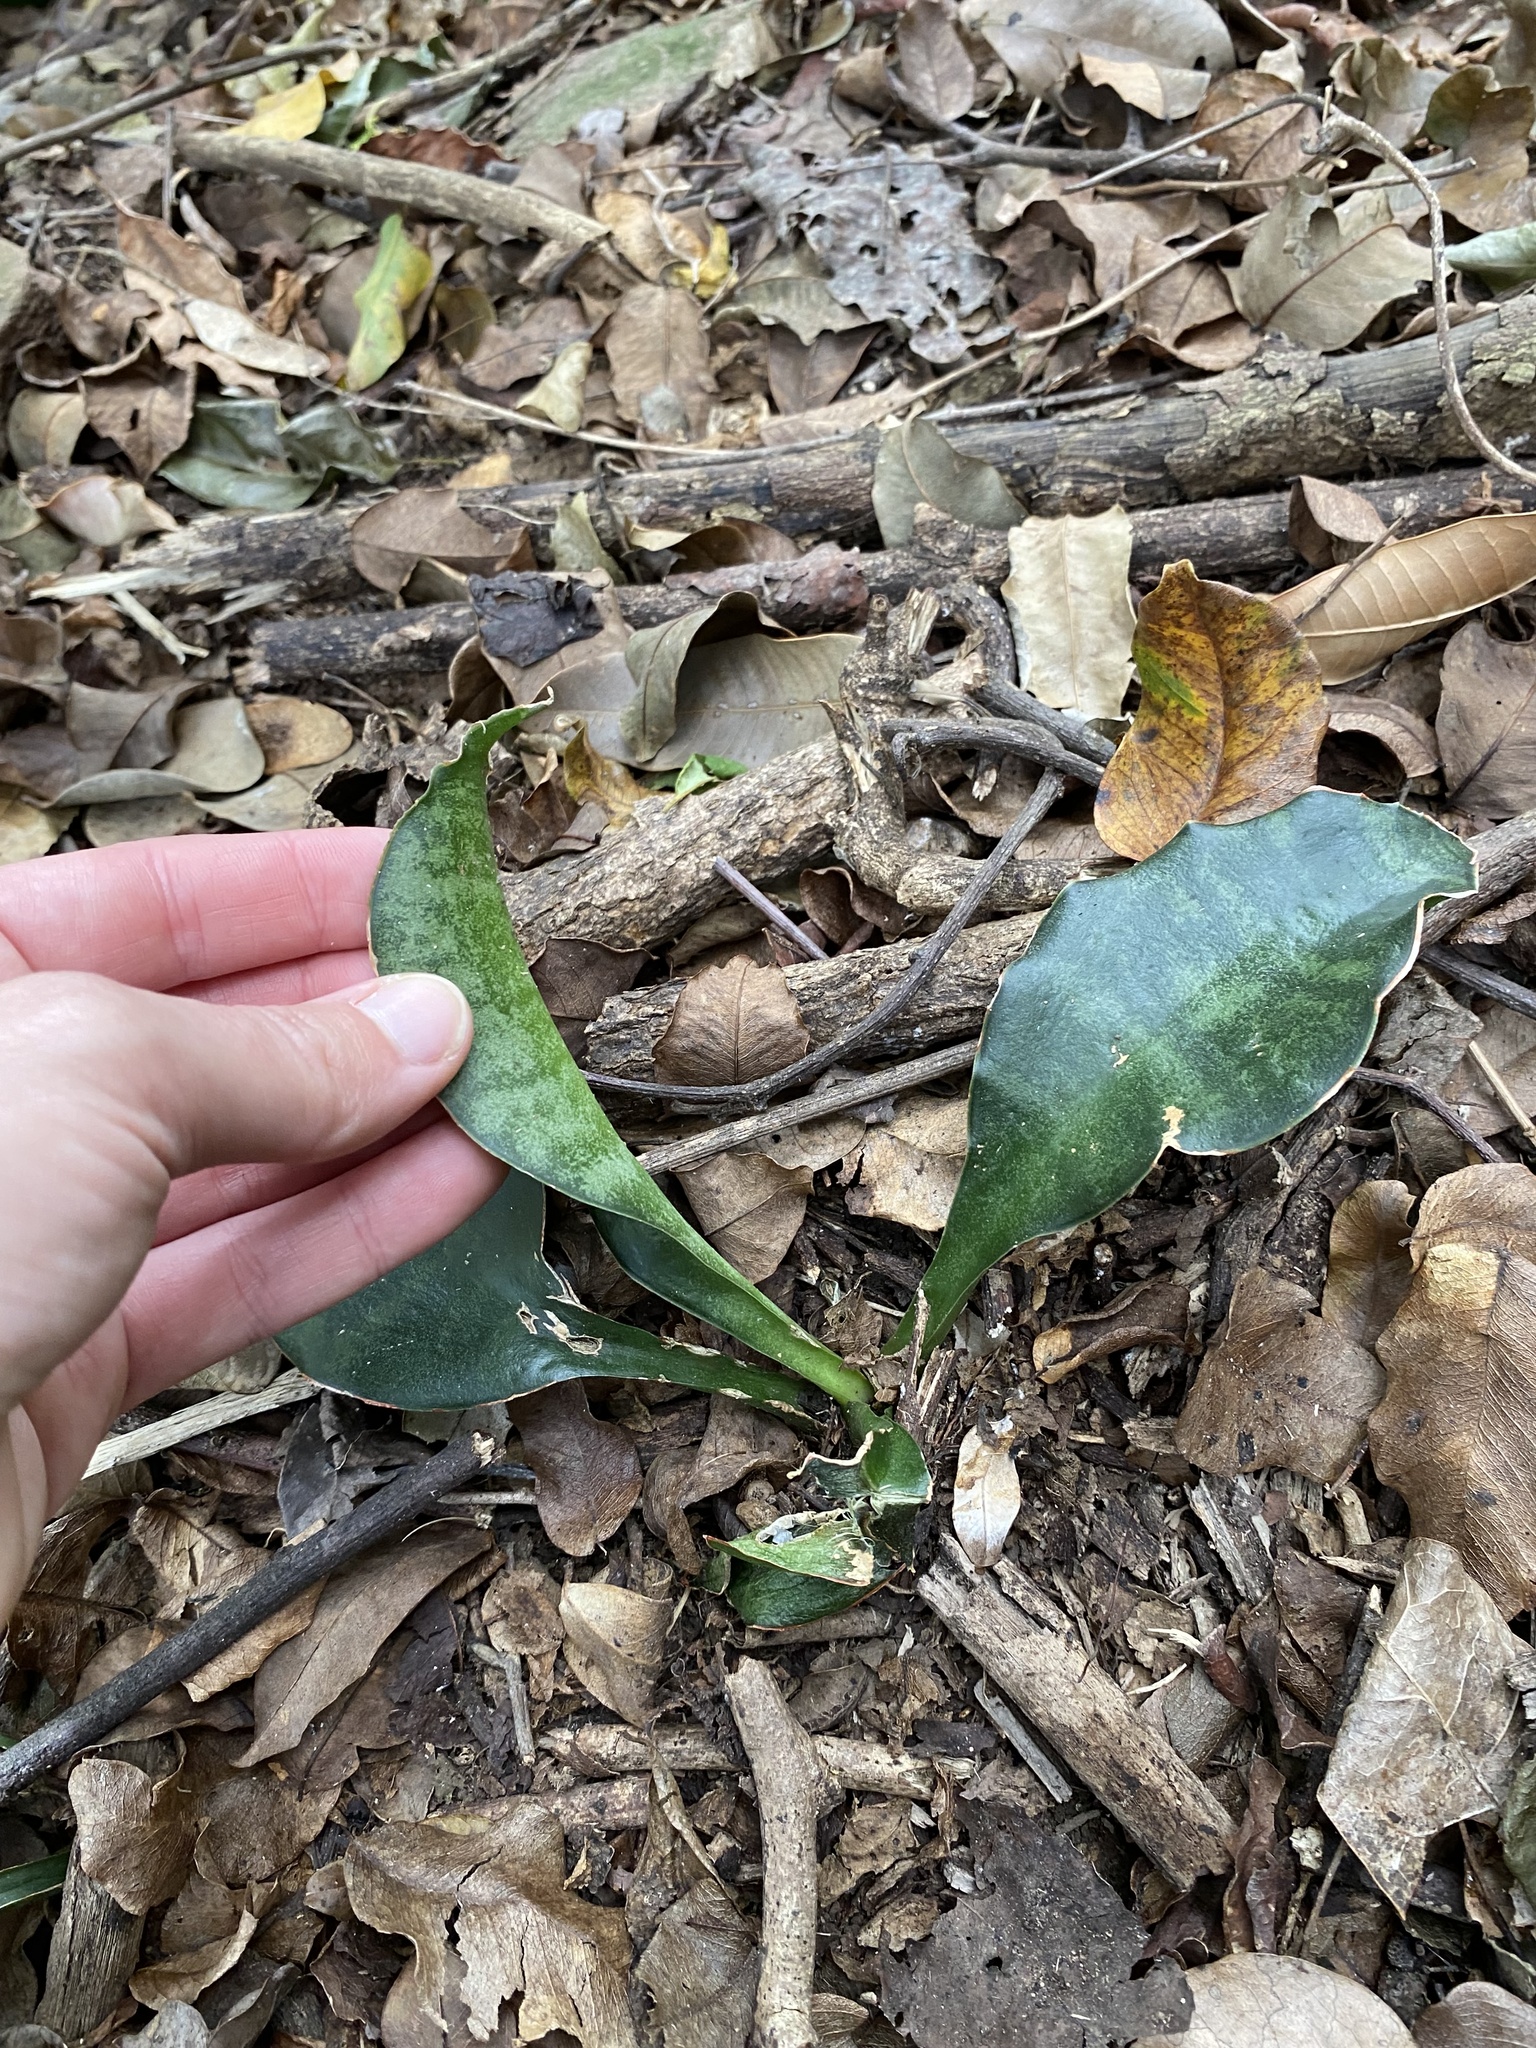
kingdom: Plantae
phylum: Tracheophyta
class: Liliopsida
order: Asparagales
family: Asparagaceae
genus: Dracaena
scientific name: Dracaena hyacinthoides
